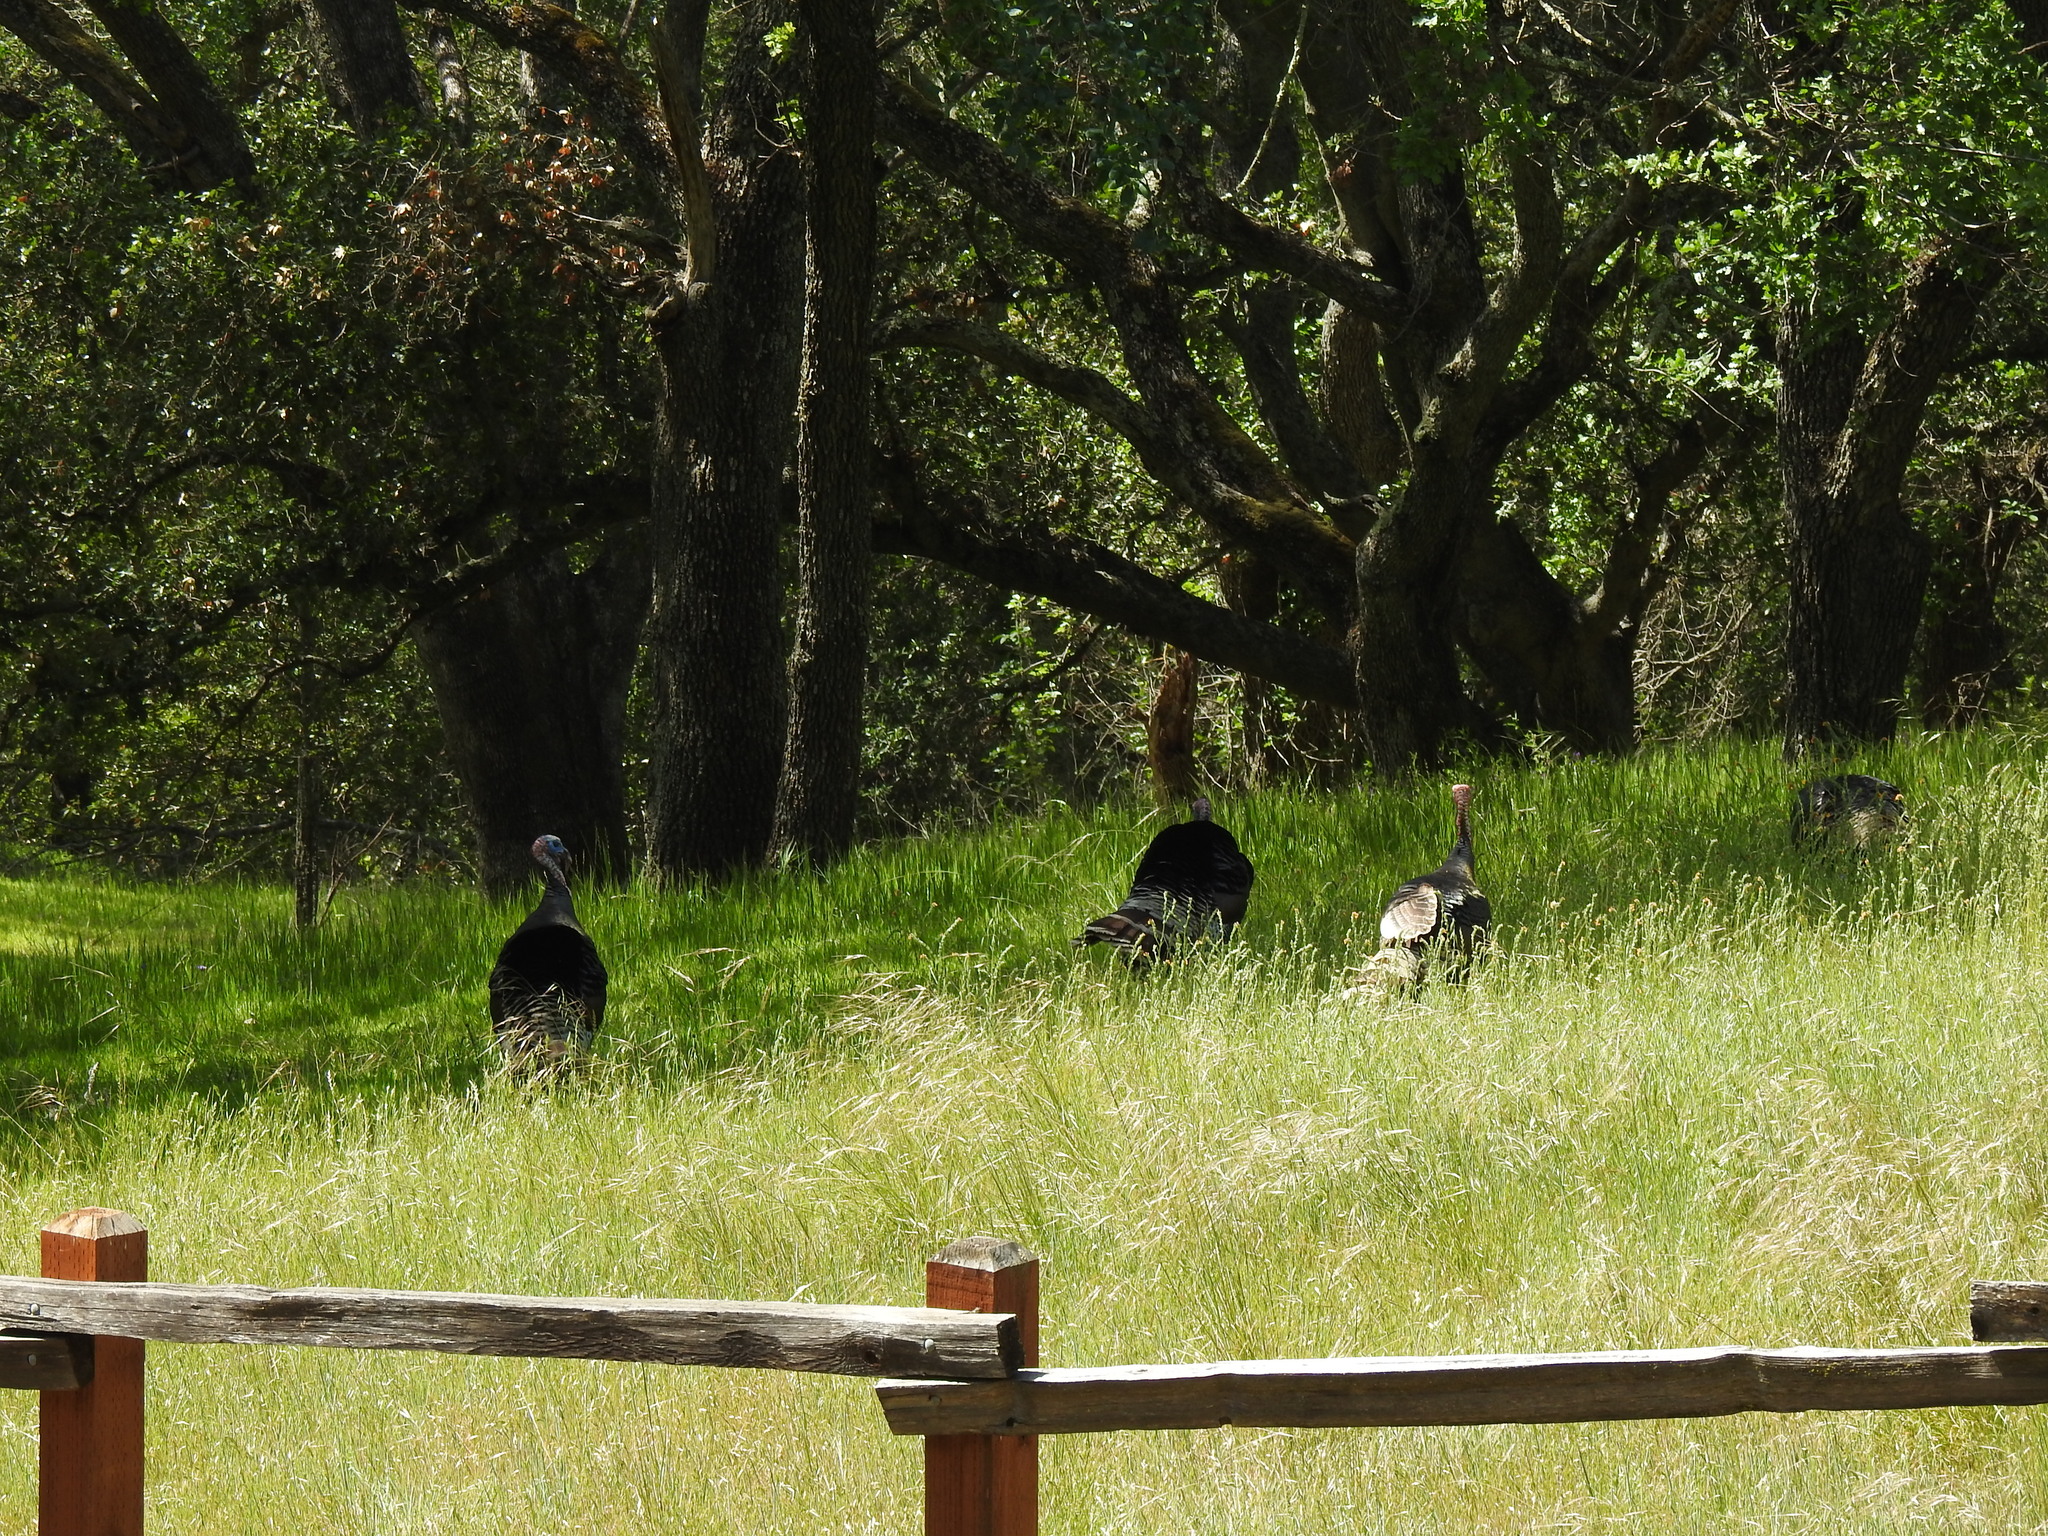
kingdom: Animalia
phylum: Chordata
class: Aves
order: Galliformes
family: Phasianidae
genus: Meleagris
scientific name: Meleagris gallopavo
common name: Wild turkey
